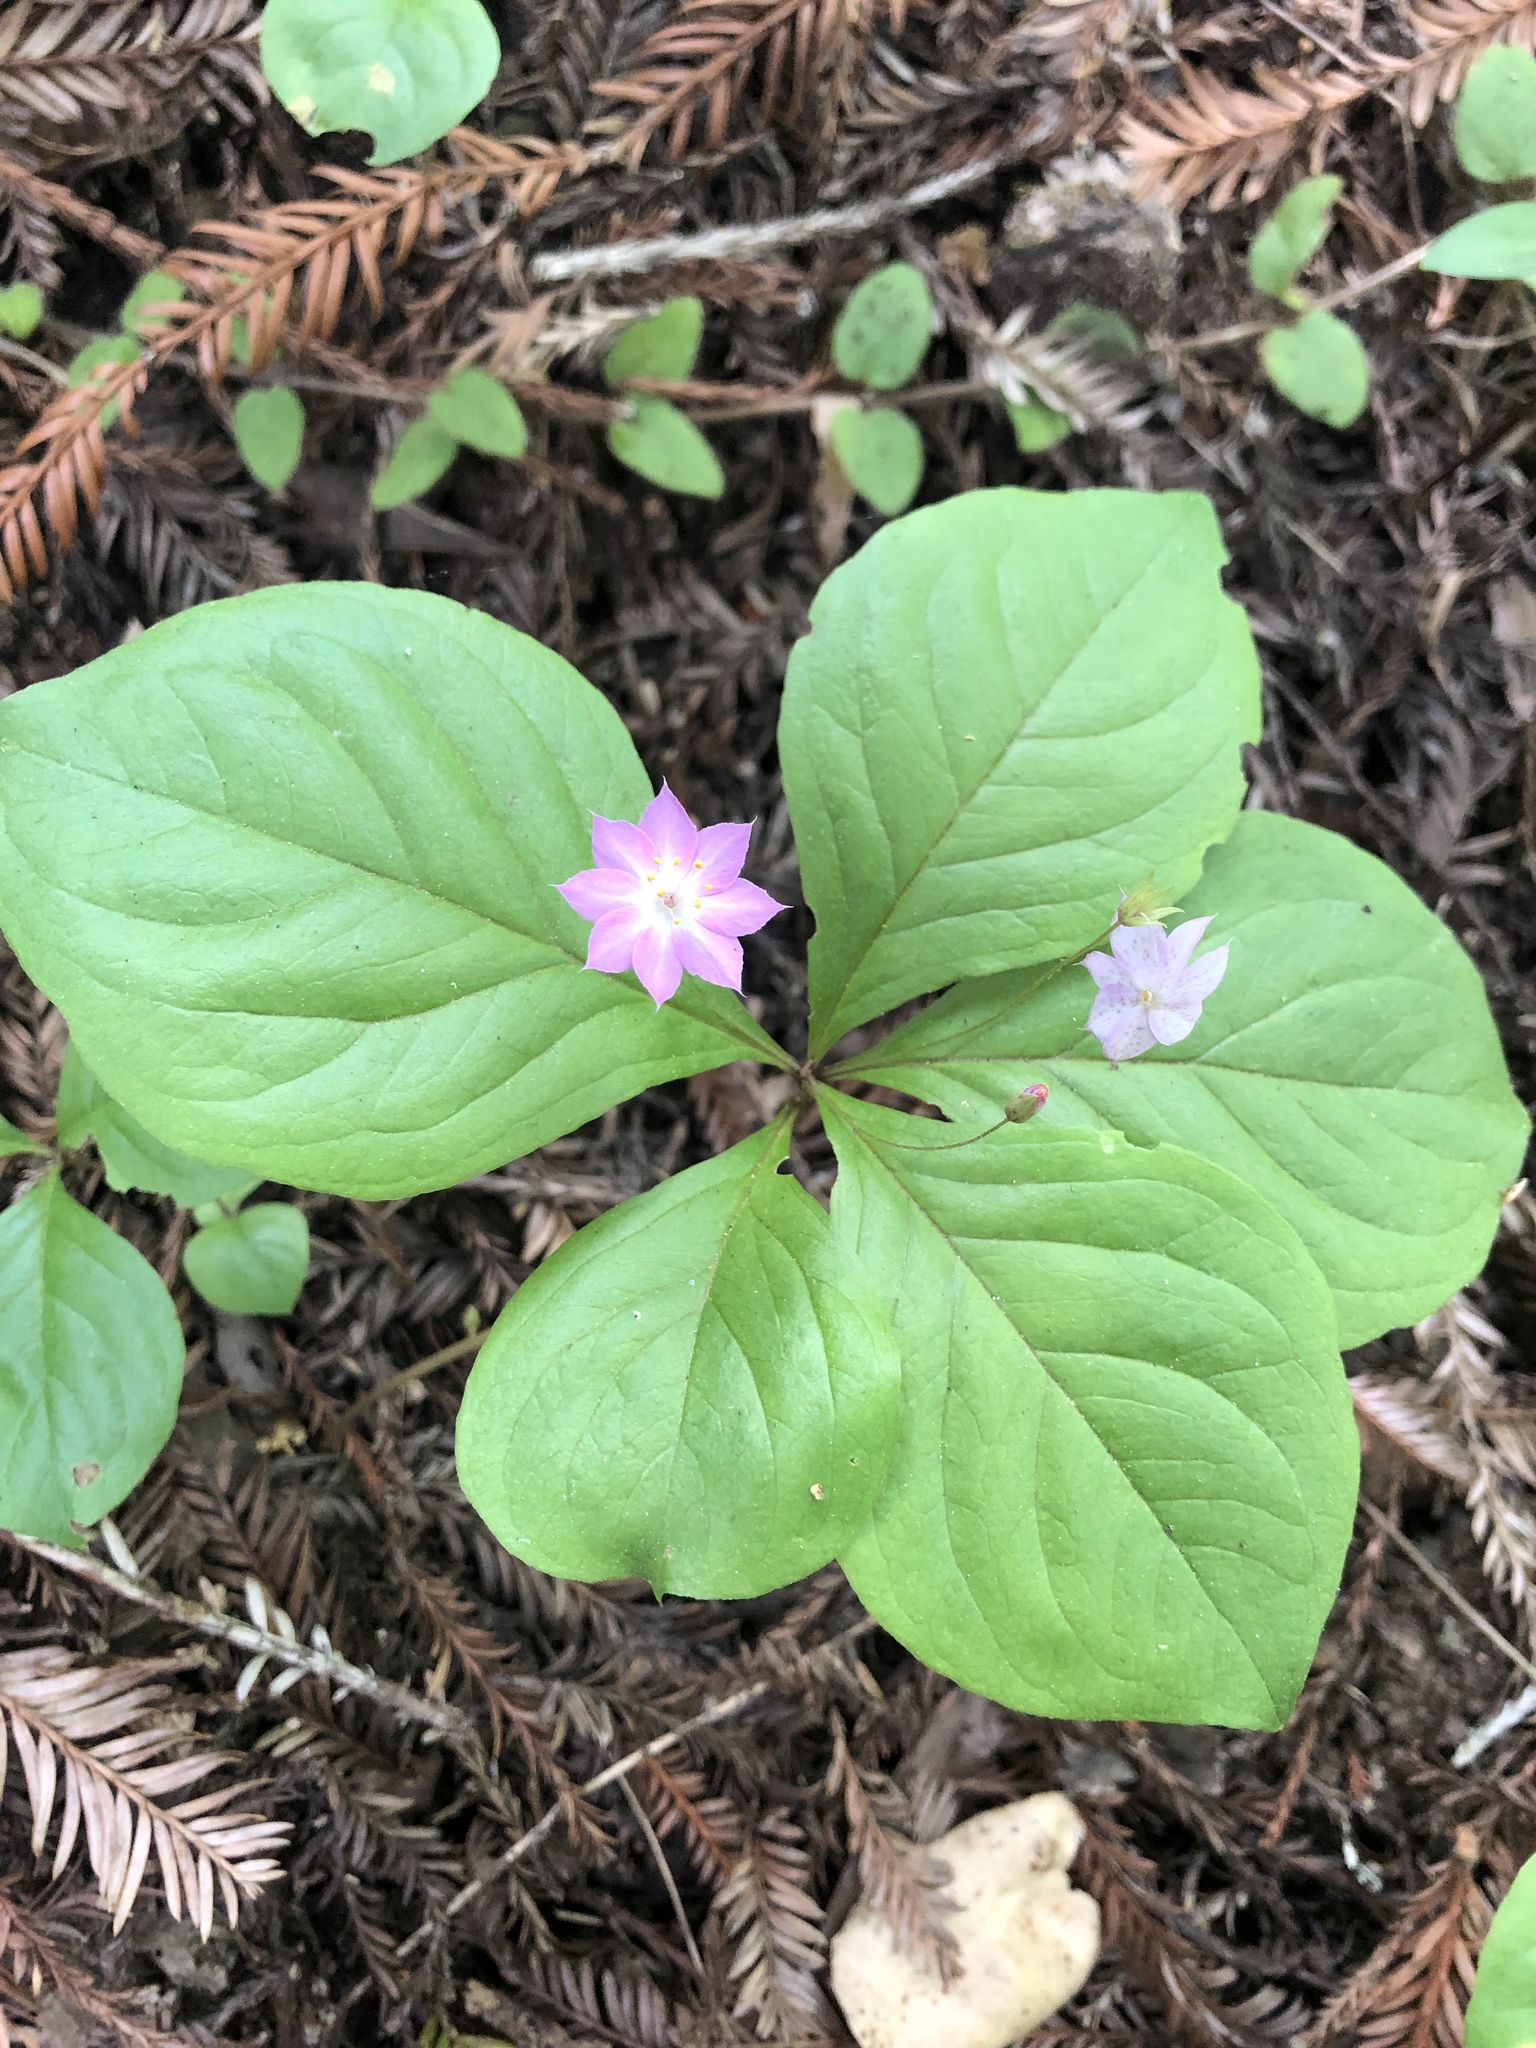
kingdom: Plantae
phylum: Tracheophyta
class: Magnoliopsida
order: Ericales
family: Primulaceae
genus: Lysimachia
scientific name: Lysimachia latifolia
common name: Pacific starflower
